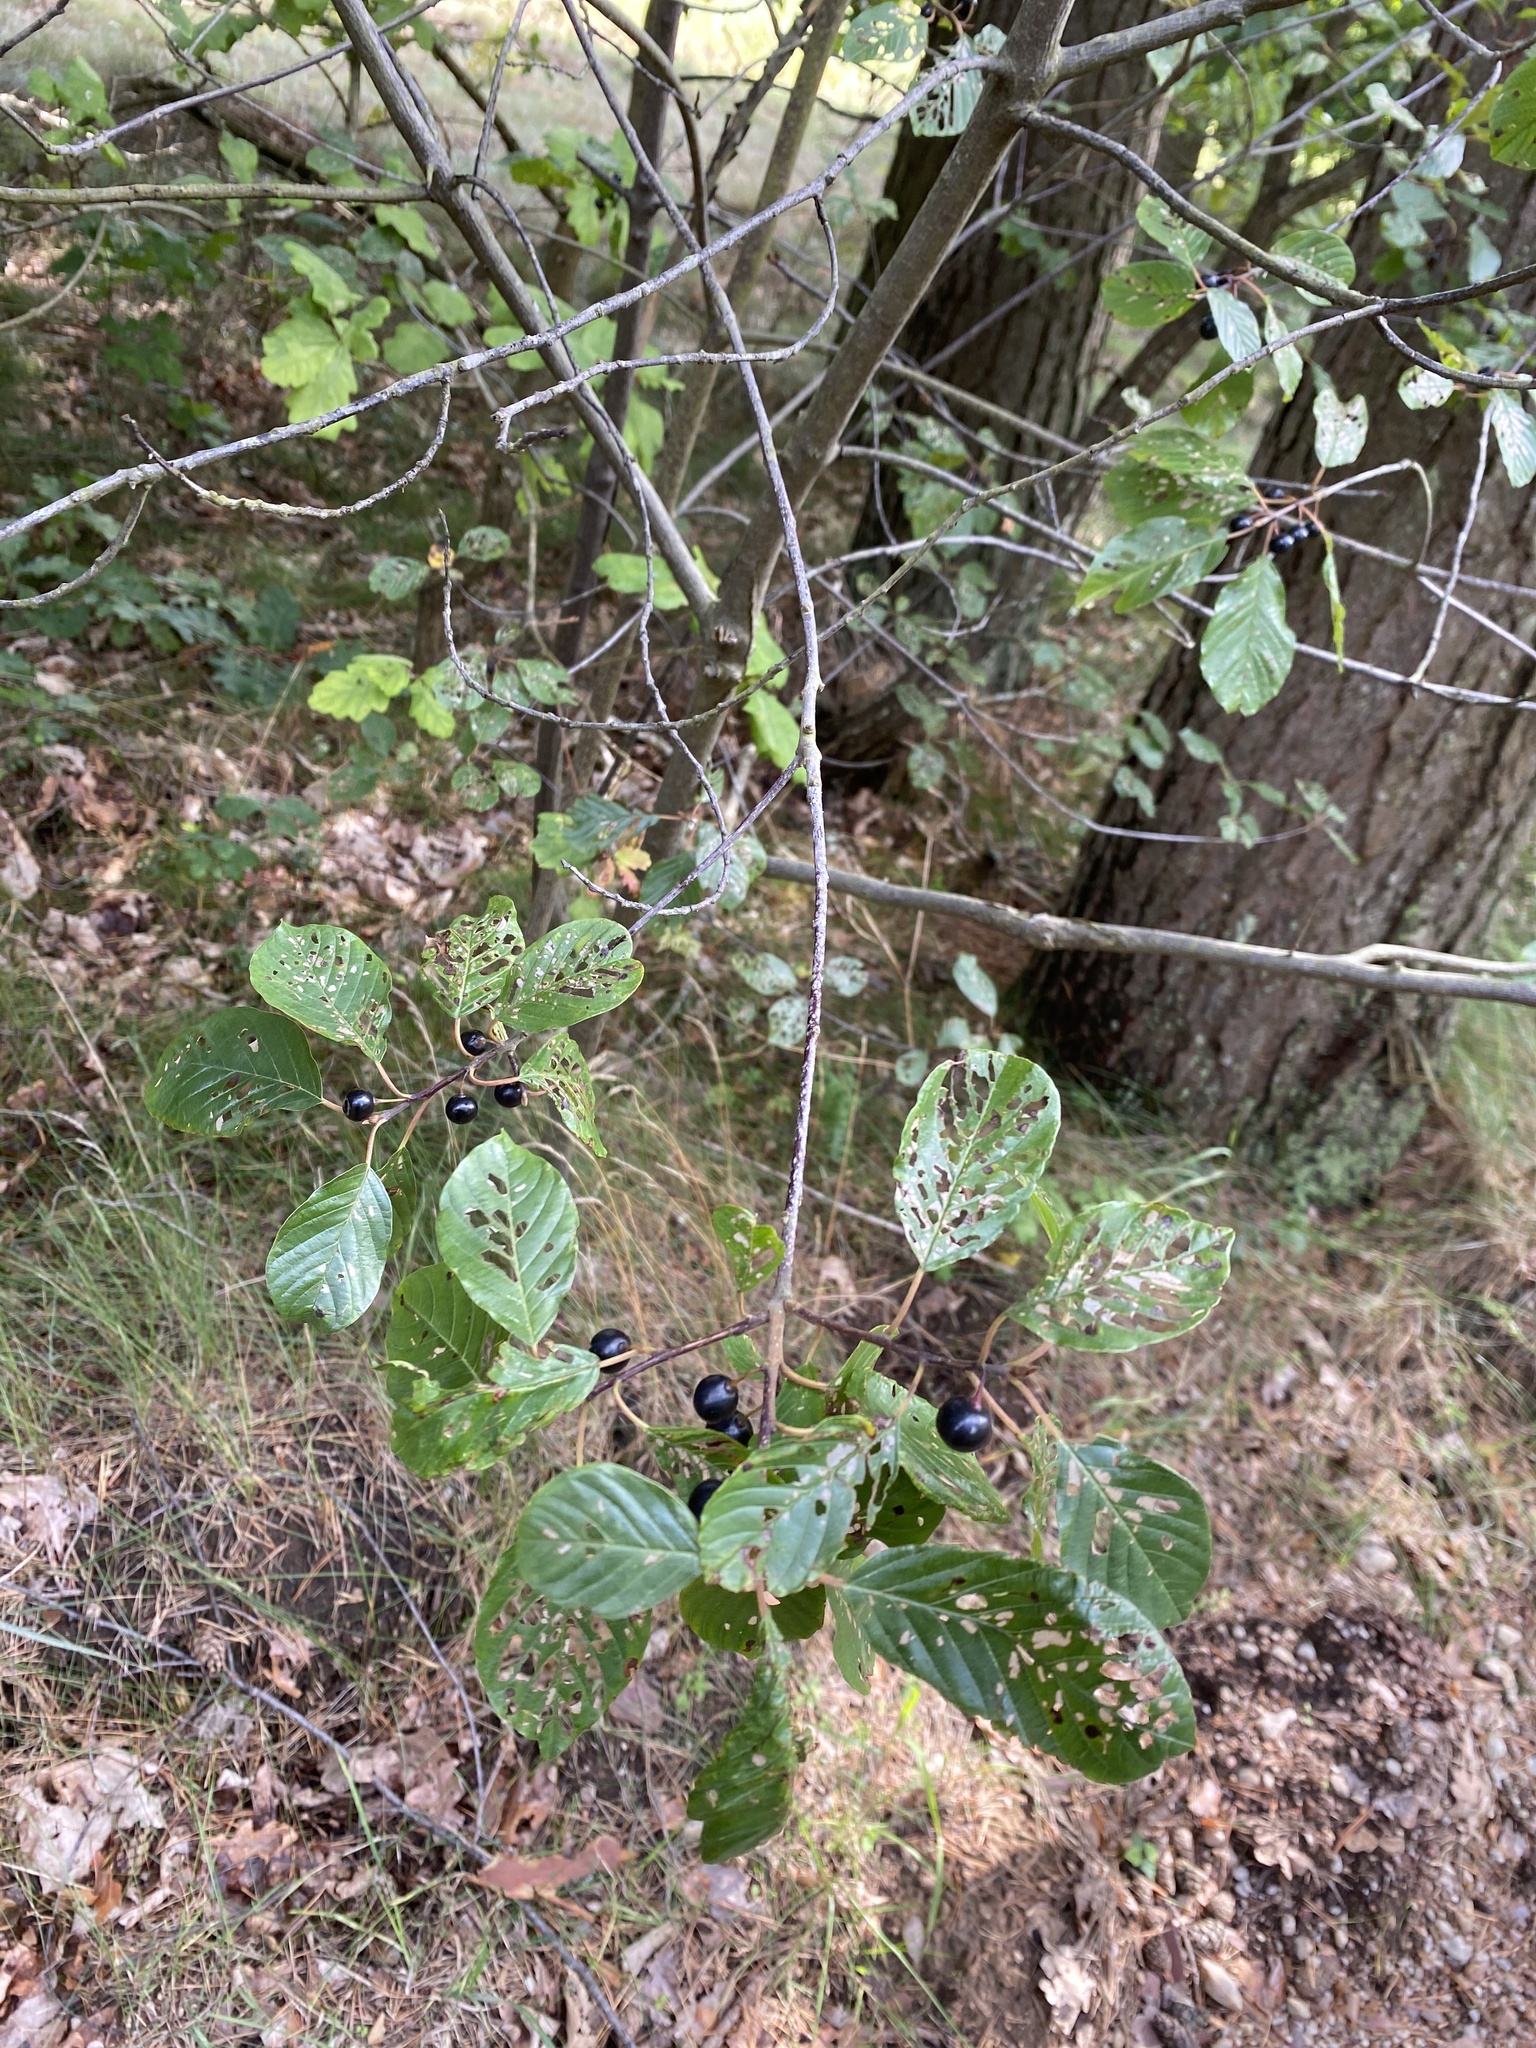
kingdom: Plantae
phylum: Tracheophyta
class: Magnoliopsida
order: Rosales
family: Rhamnaceae
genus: Frangula
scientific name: Frangula alnus
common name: Alder buckthorn
